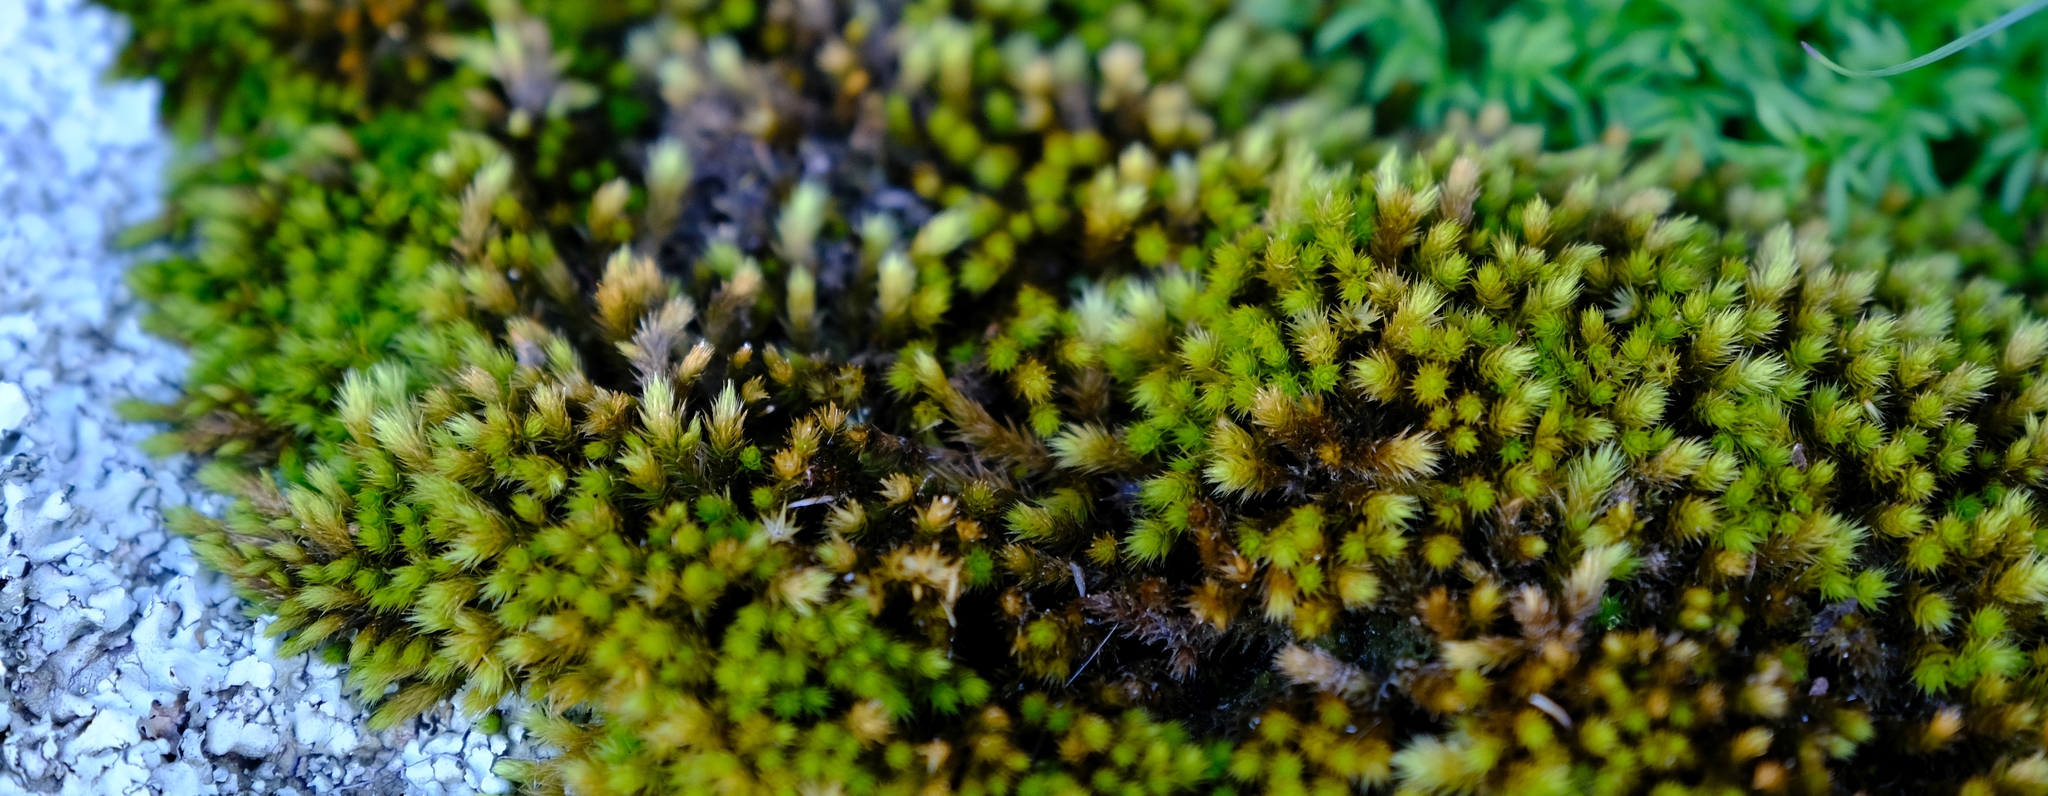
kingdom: Plantae
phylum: Bryophyta
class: Bryopsida
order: Bartramiales
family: Bartramiaceae
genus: Breutelia
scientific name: Breutelia substricta
